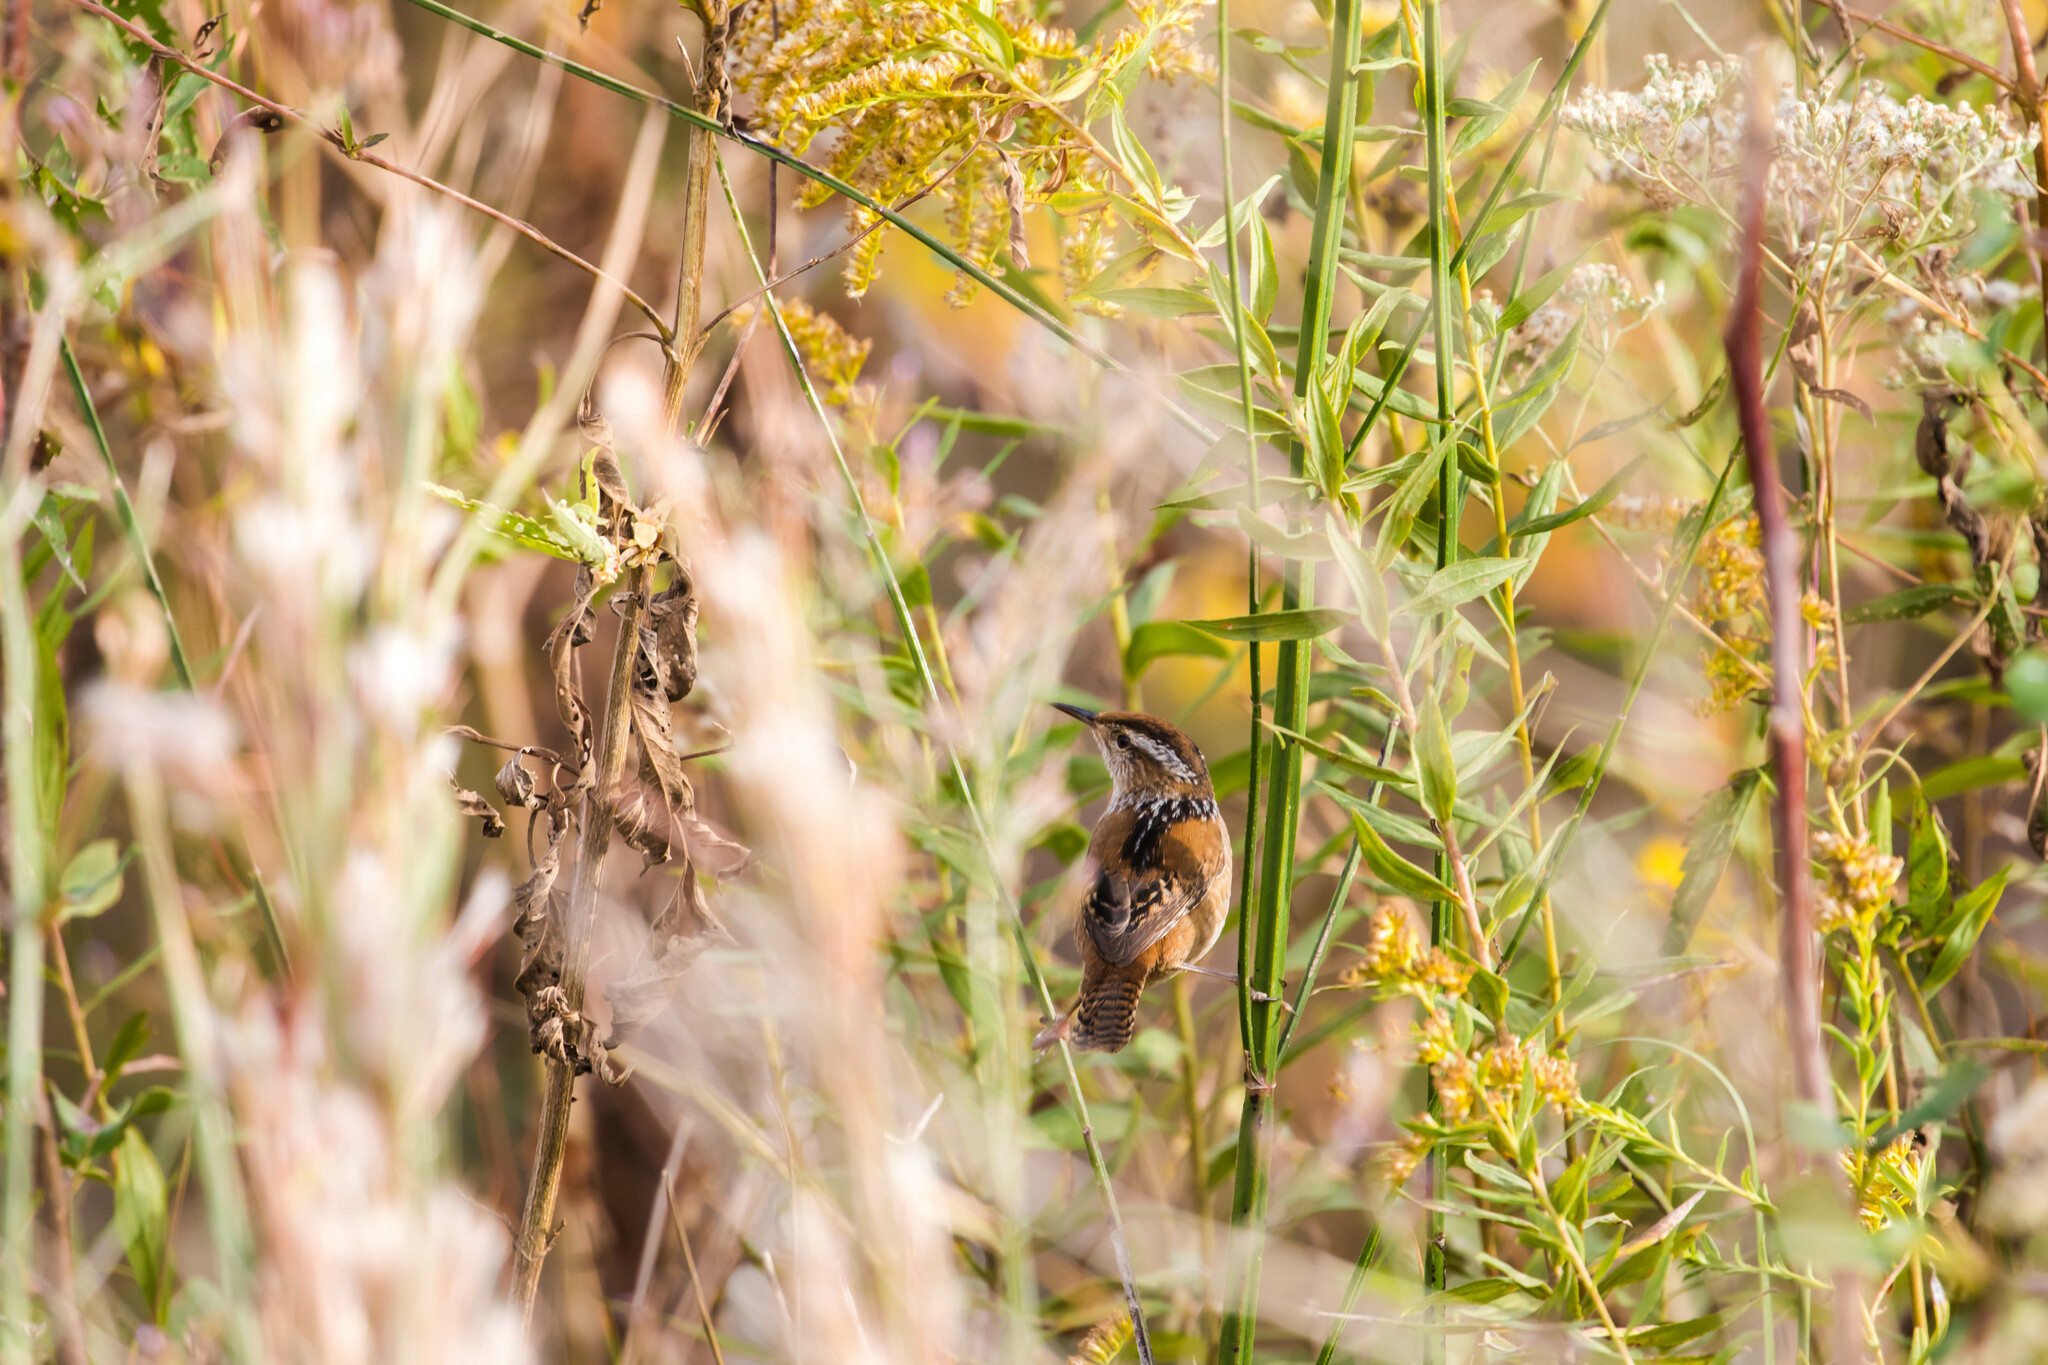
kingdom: Animalia
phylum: Chordata
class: Aves
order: Passeriformes
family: Troglodytidae
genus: Cistothorus
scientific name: Cistothorus palustris
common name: Marsh wren
